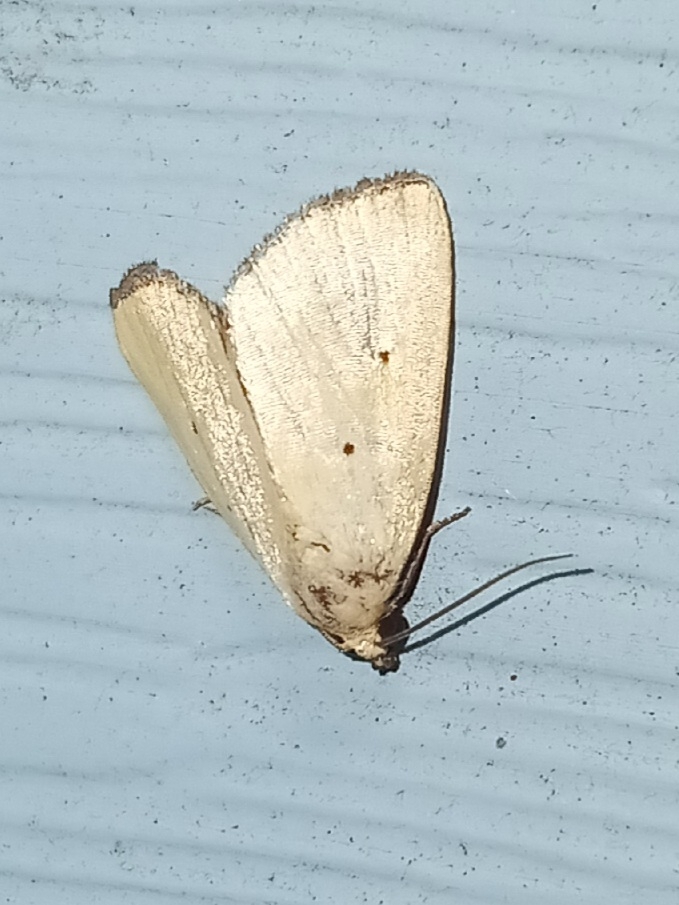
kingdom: Animalia
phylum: Arthropoda
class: Insecta
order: Lepidoptera
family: Noctuidae
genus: Marimatha
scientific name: Marimatha nigrofimbria
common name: Black-bordered lemon moth
